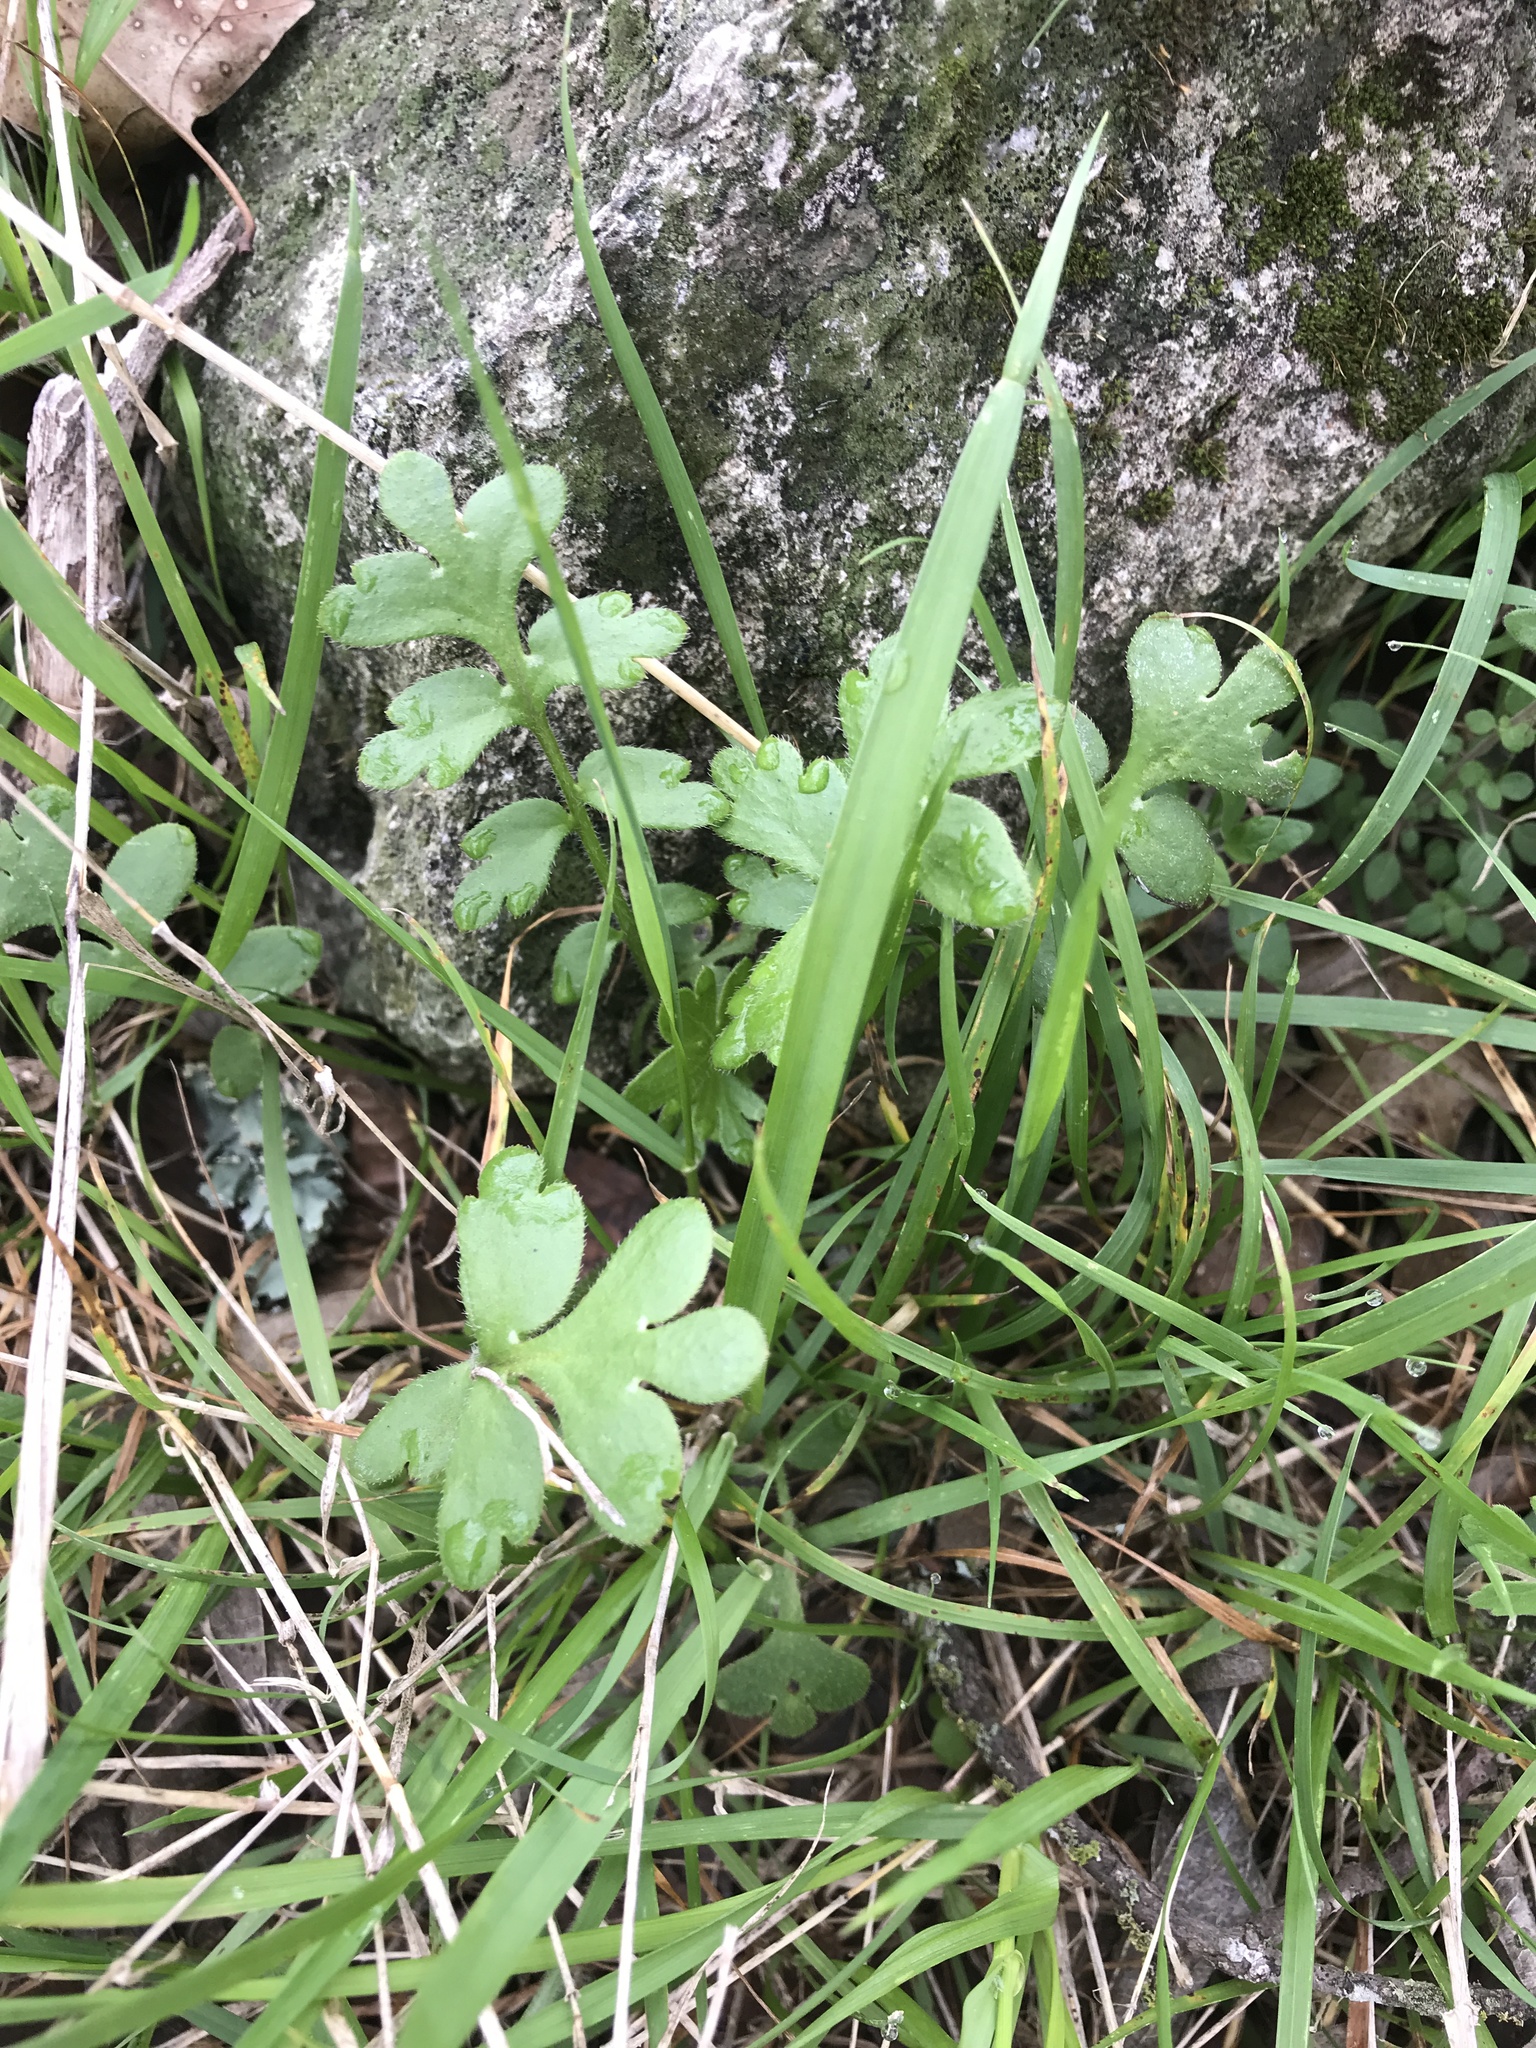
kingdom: Plantae
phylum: Tracheophyta
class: Magnoliopsida
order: Boraginales
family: Hydrophyllaceae
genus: Nemophila
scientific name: Nemophila phacelioides
